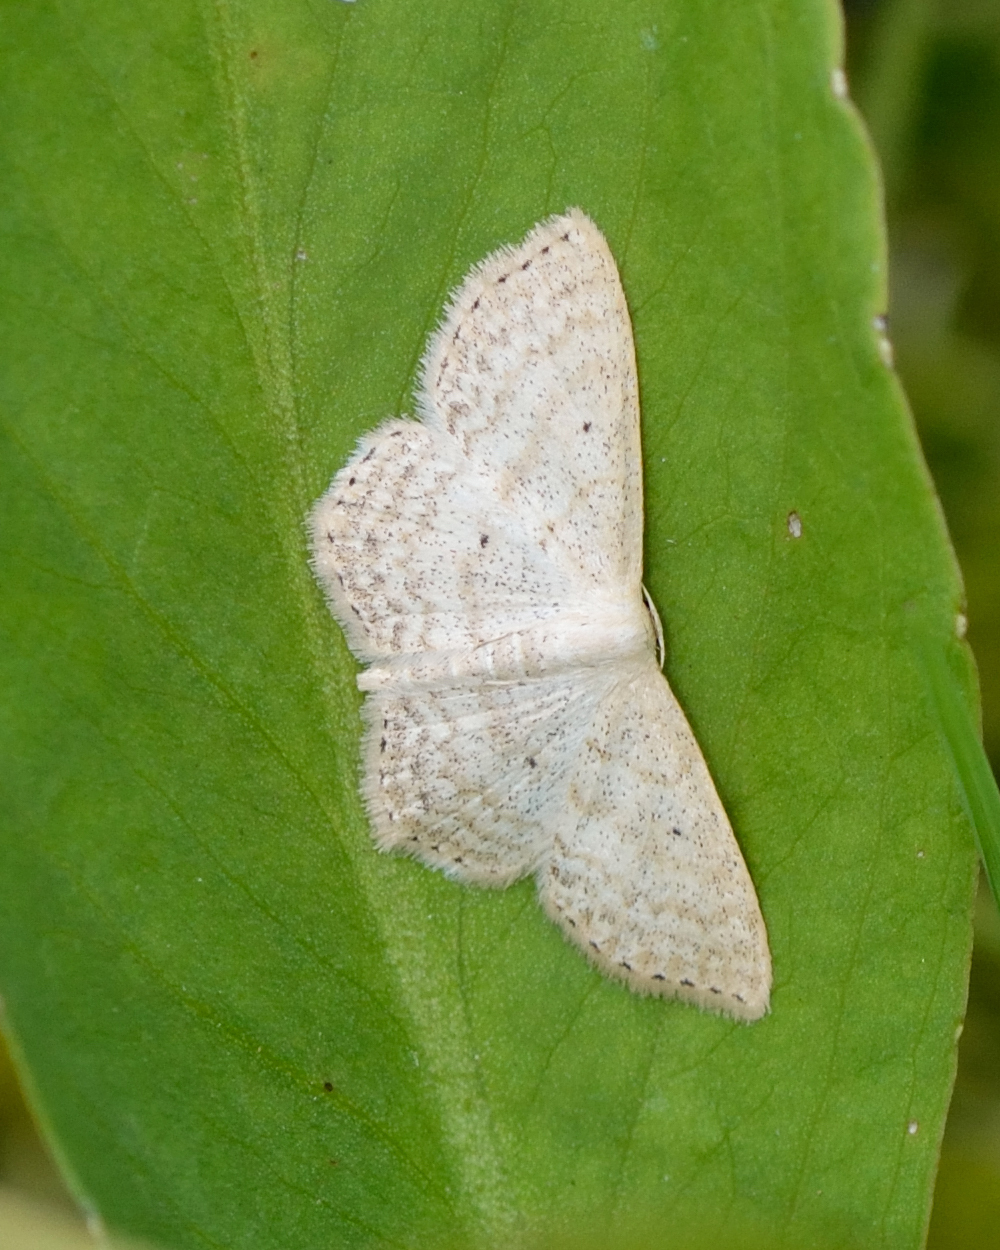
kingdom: Animalia
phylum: Arthropoda
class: Insecta
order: Lepidoptera
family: Geometridae
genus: Scopula
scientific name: Scopula corrivalaria
